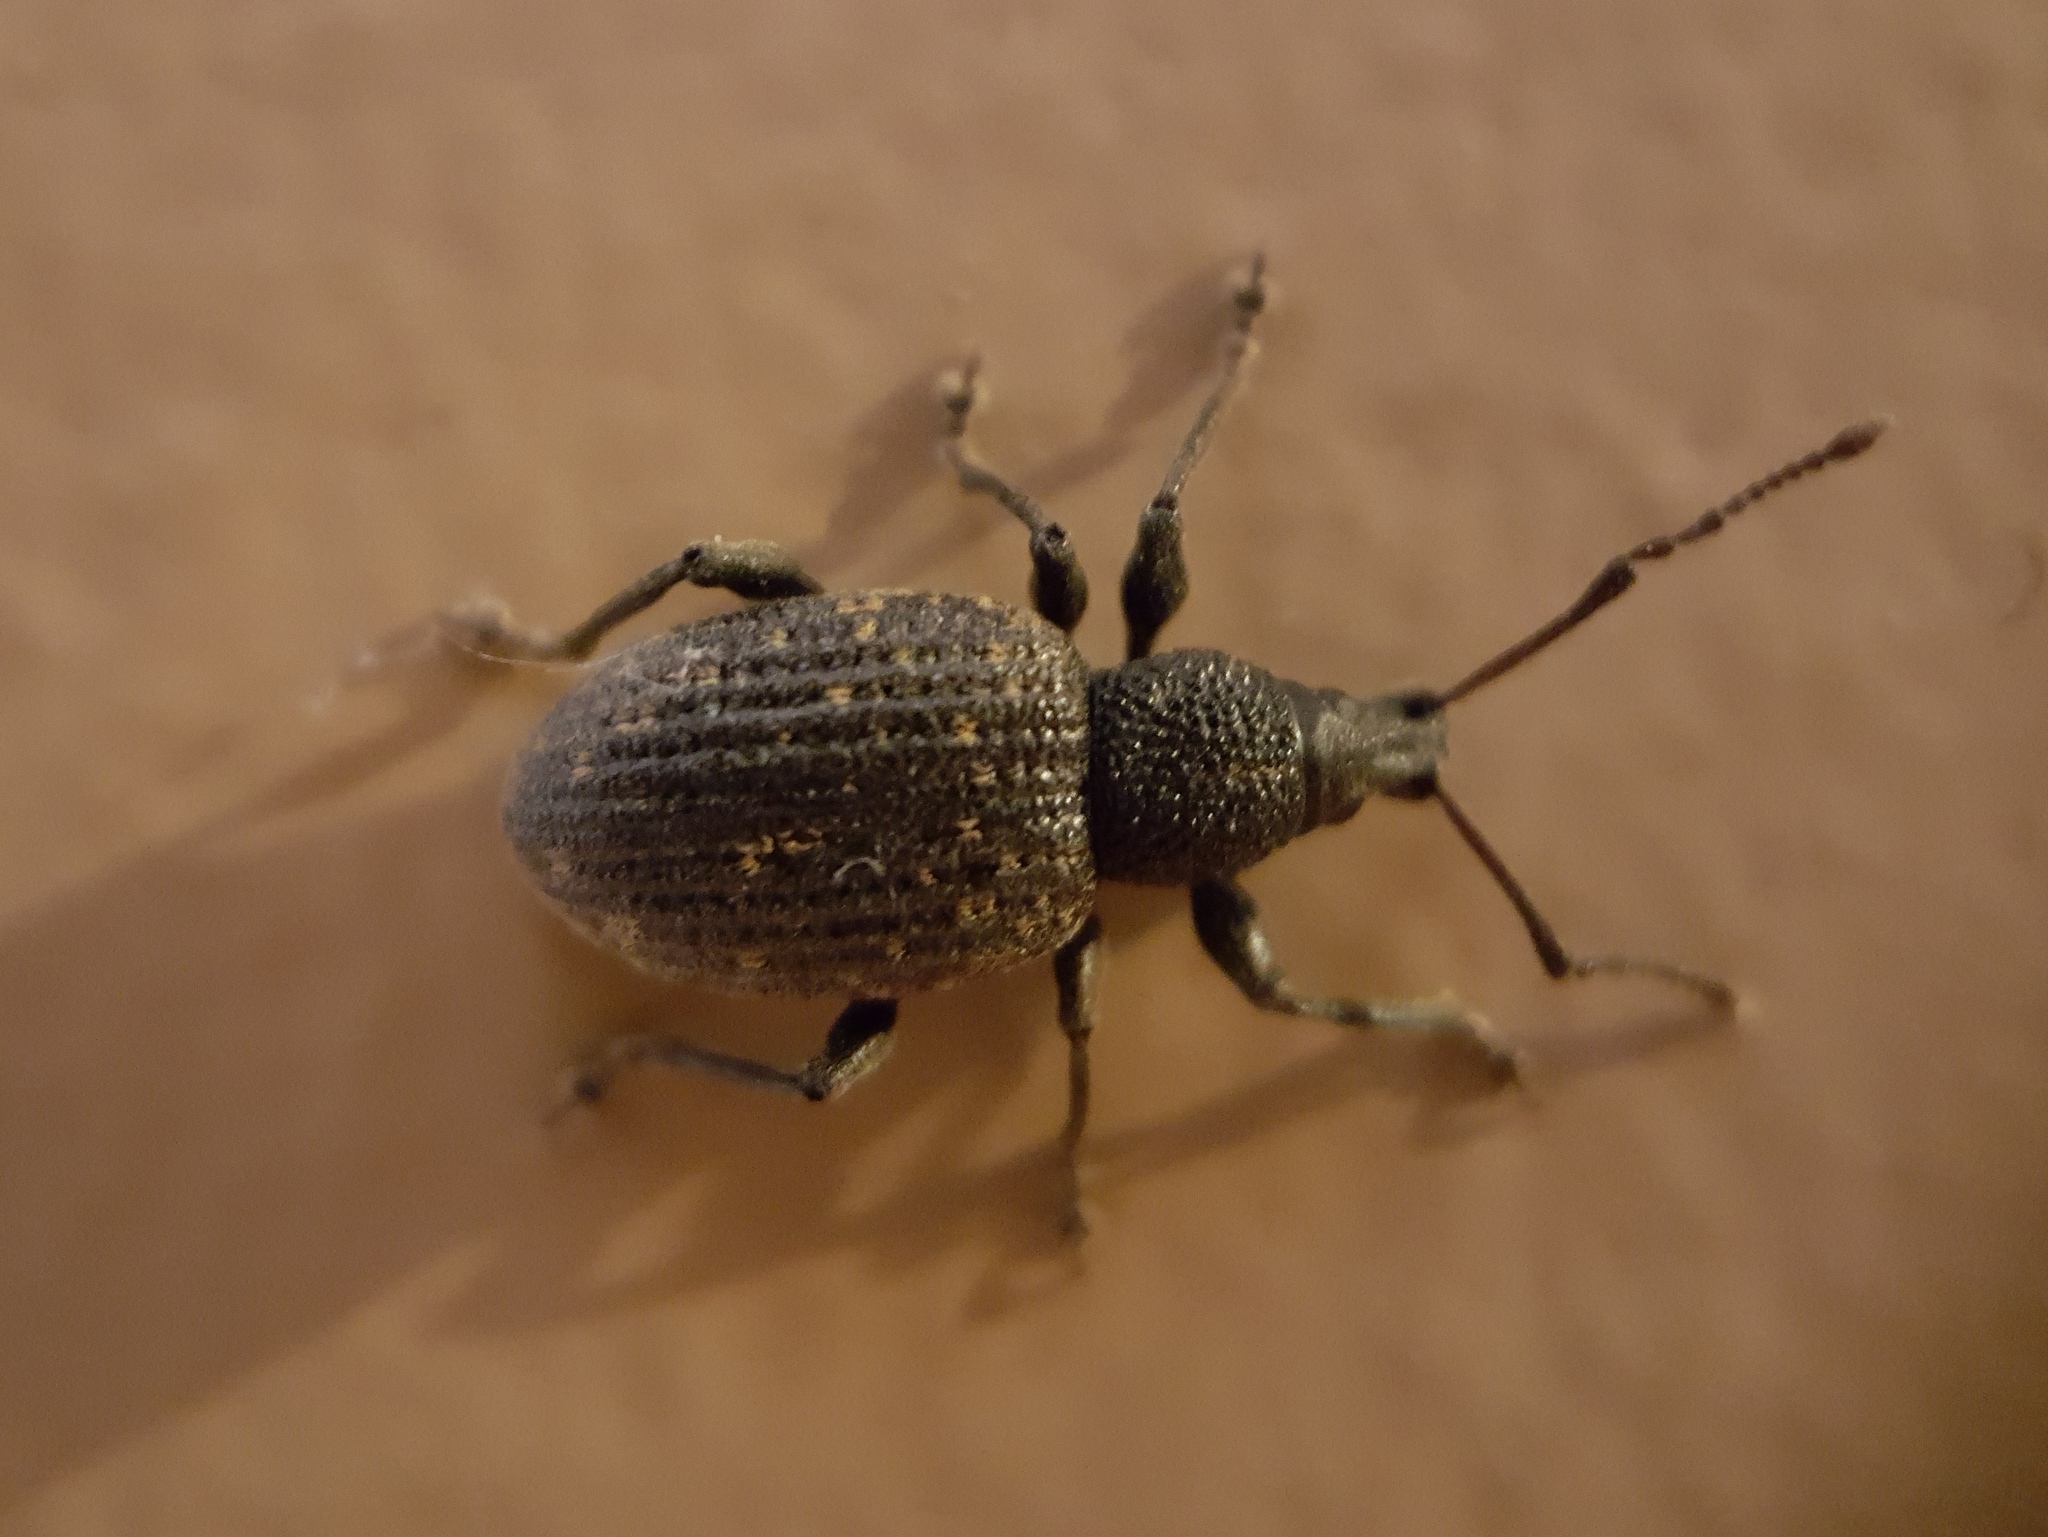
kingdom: Animalia
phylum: Arthropoda
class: Insecta
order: Coleoptera
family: Curculionidae
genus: Otiorhynchus
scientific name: Otiorhynchus sulcatus
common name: Black vine weevil
